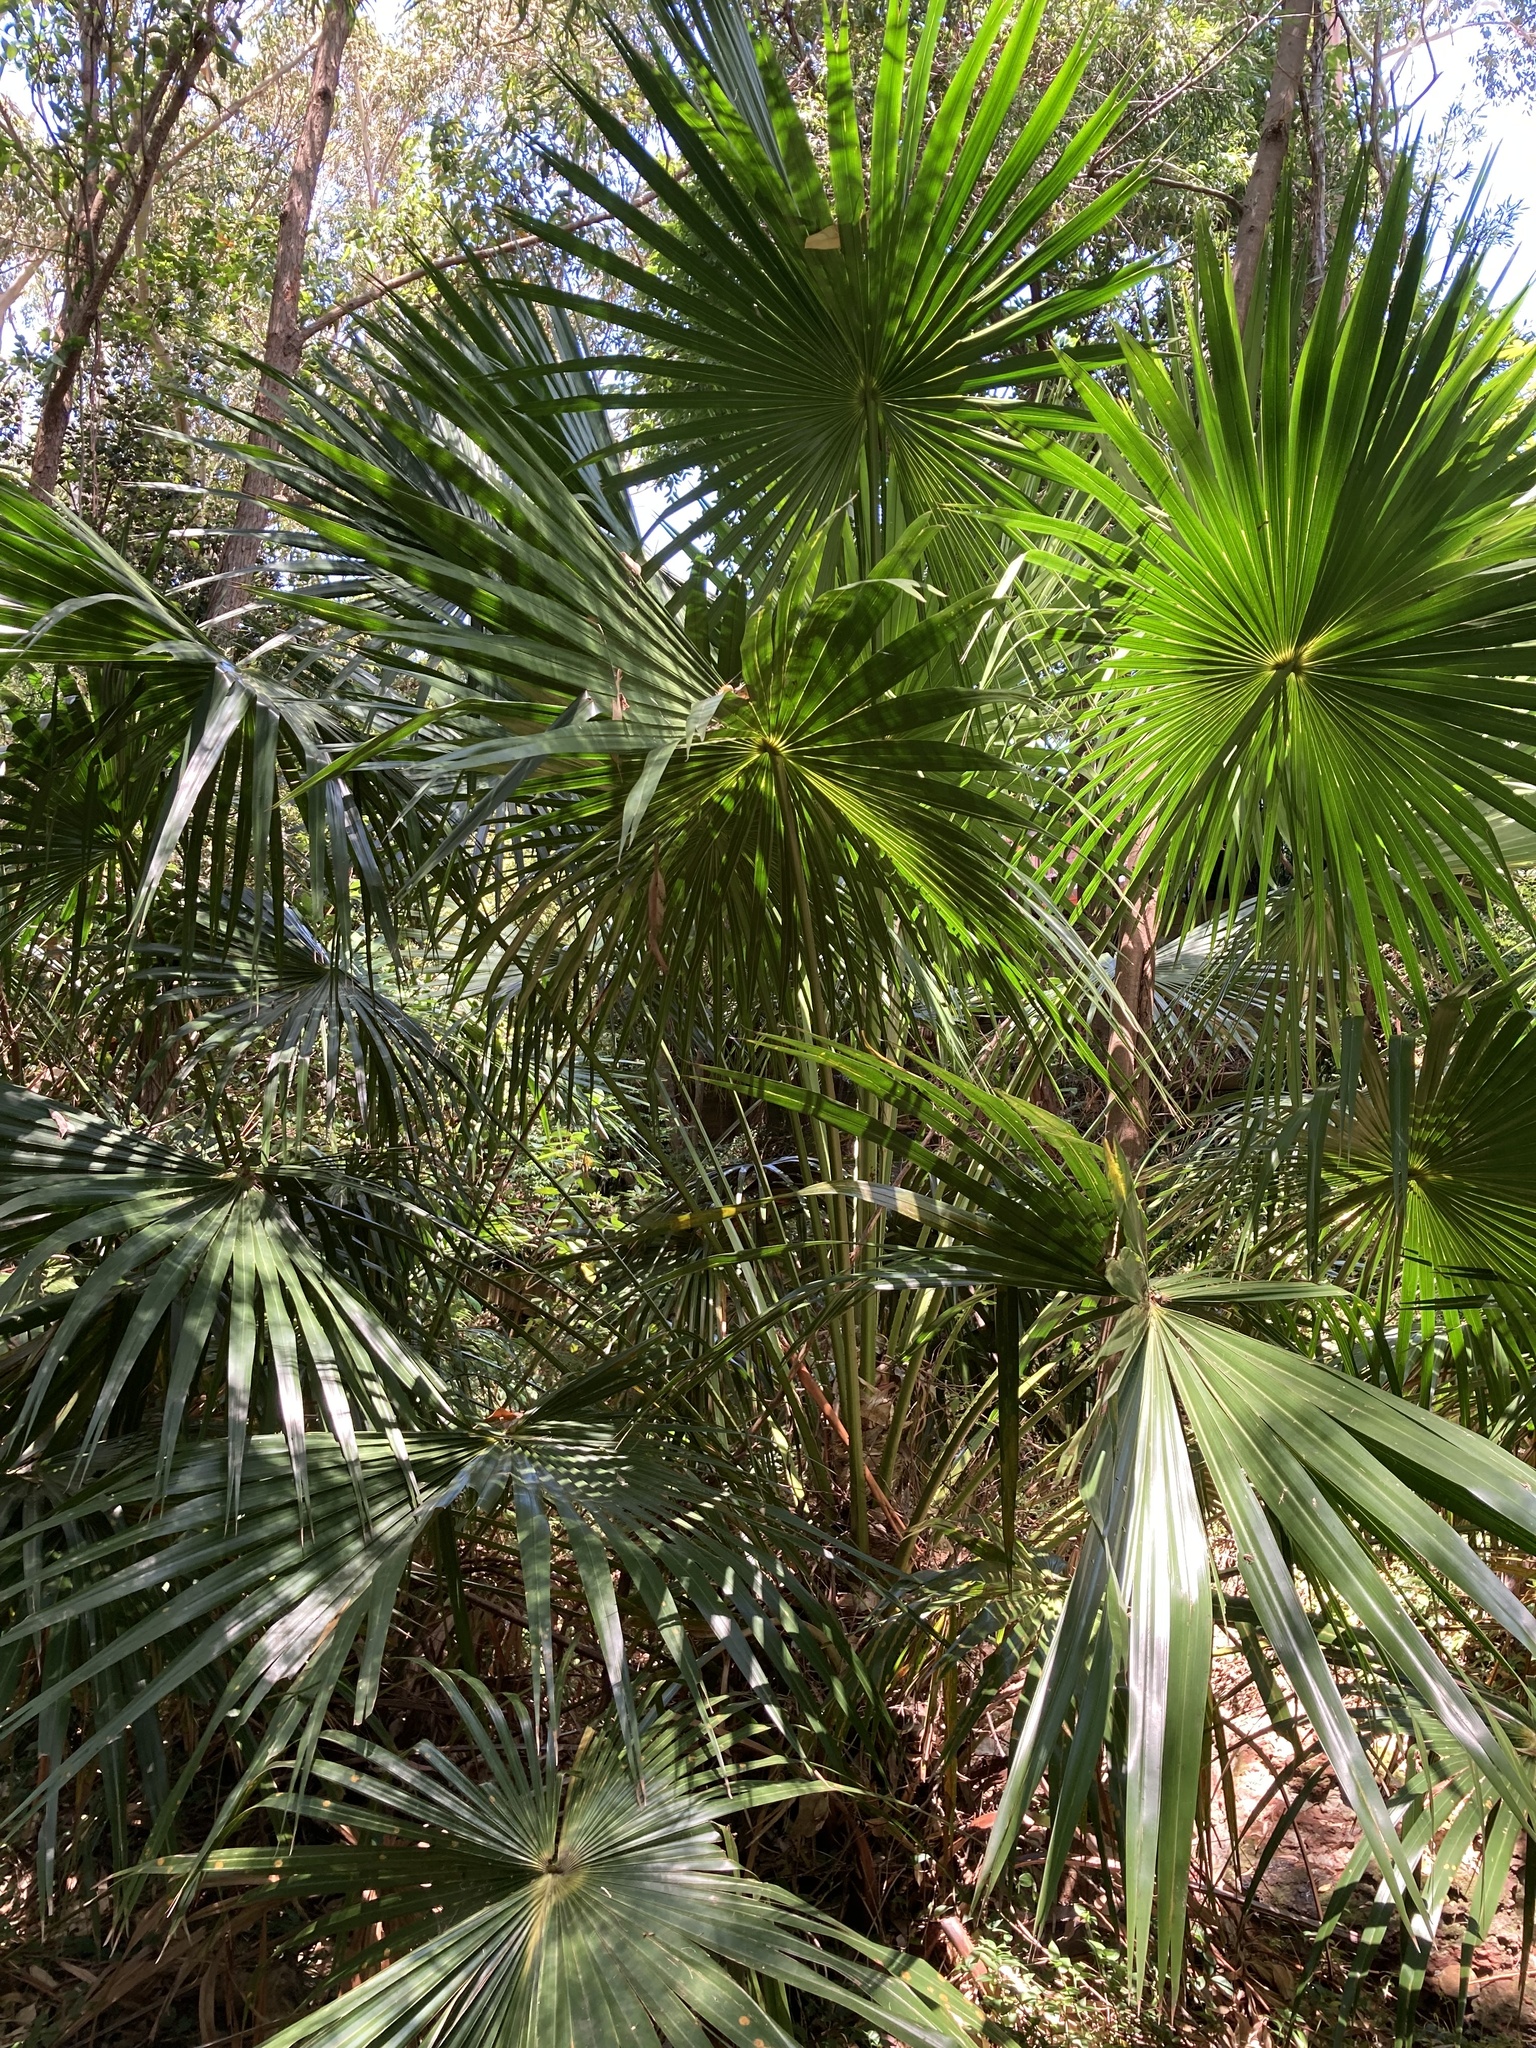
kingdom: Plantae
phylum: Tracheophyta
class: Liliopsida
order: Arecales
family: Arecaceae
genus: Livistona
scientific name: Livistona australis
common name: Cabbage fan palm
